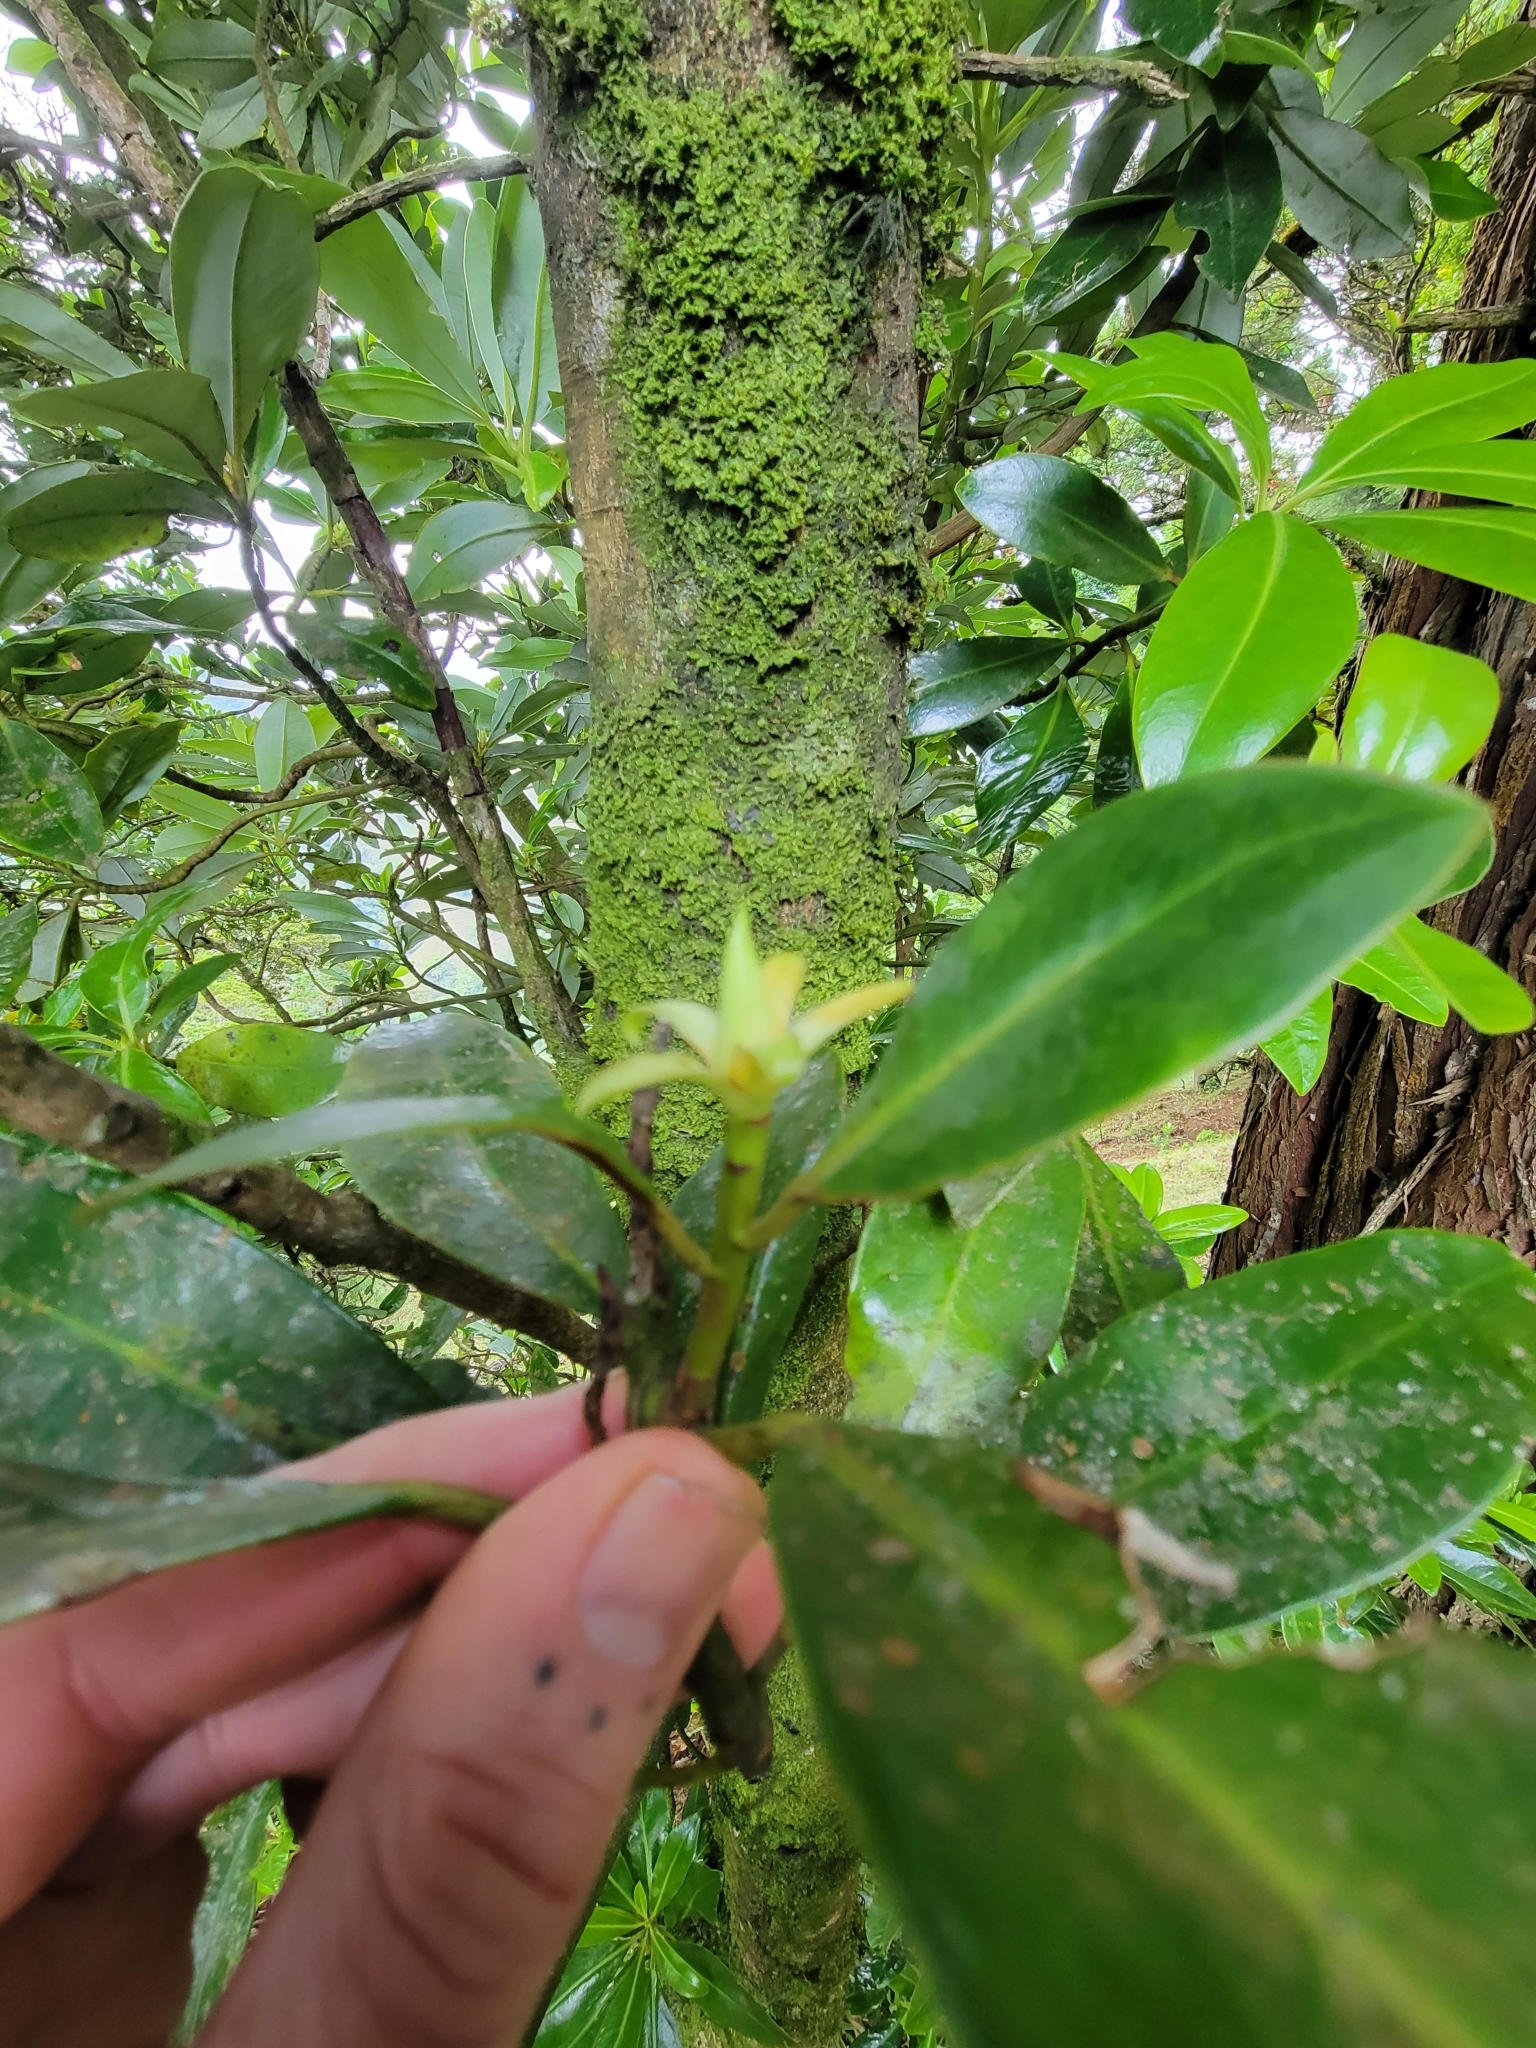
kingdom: Plantae
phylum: Tracheophyta
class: Magnoliopsida
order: Canellales
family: Winteraceae
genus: Drimys
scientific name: Drimys granadensis
